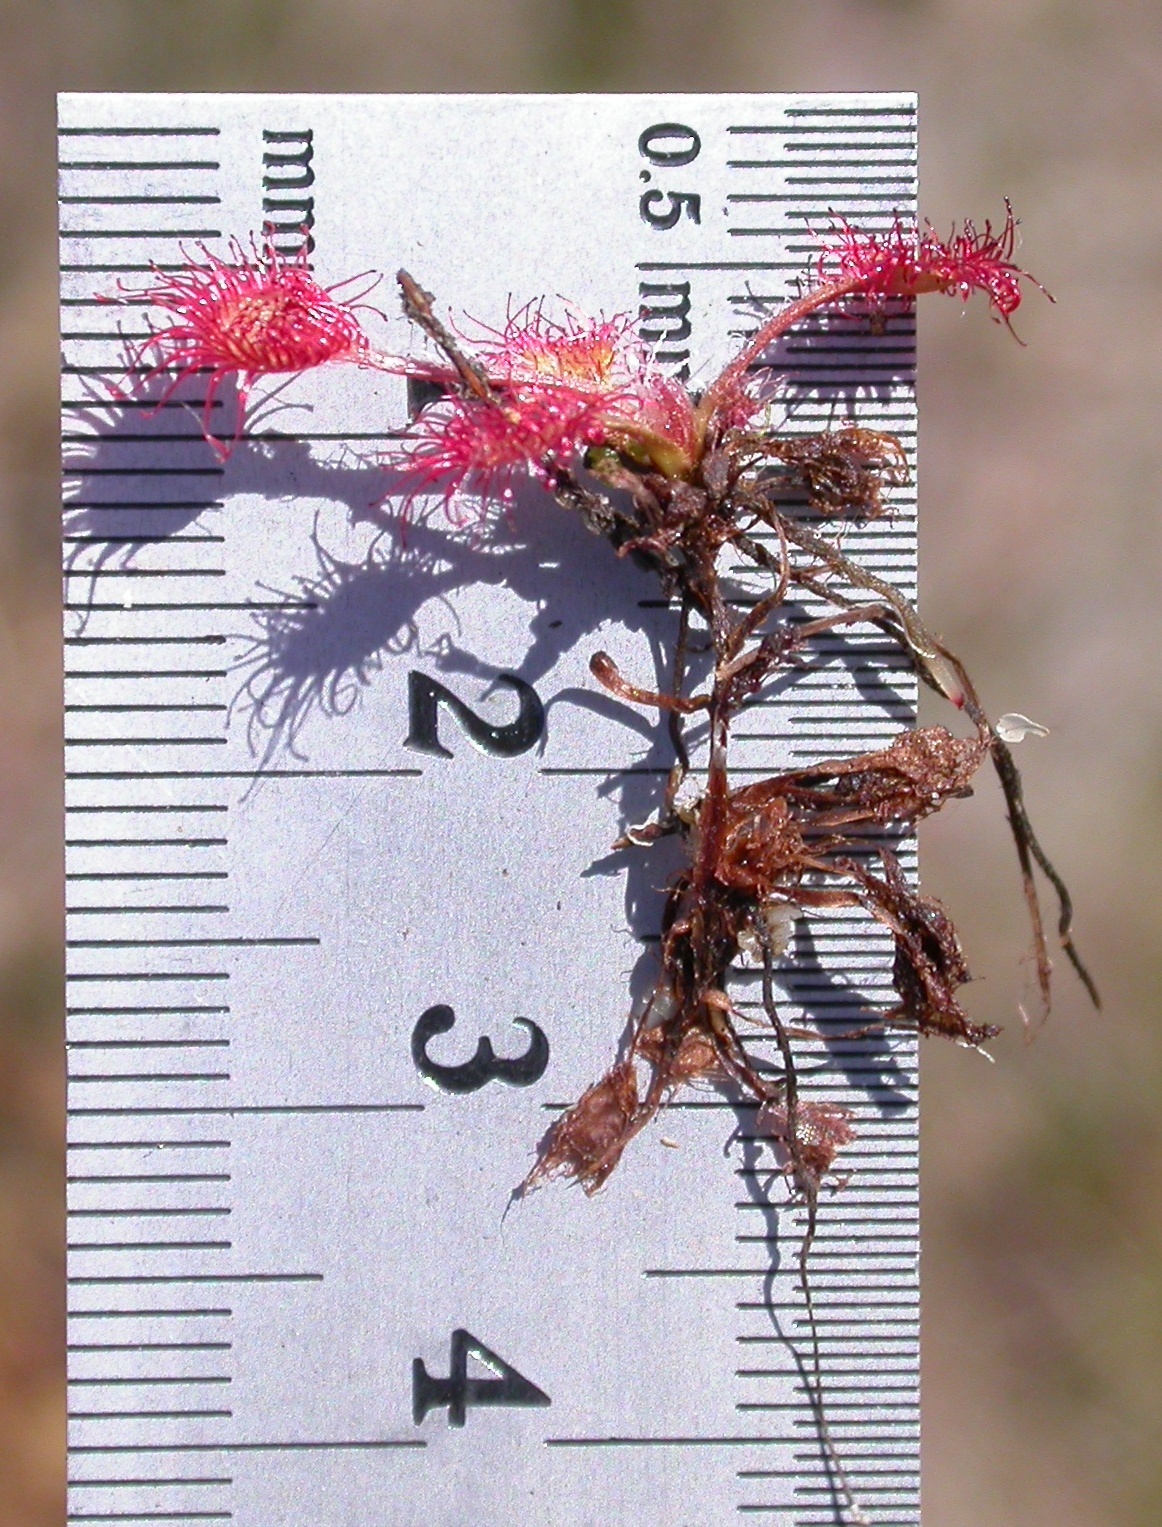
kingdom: Plantae
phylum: Tracheophyta
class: Magnoliopsida
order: Caryophyllales
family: Droseraceae
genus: Drosera
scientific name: Drosera rotundifolia
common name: Round-leaved sundew
